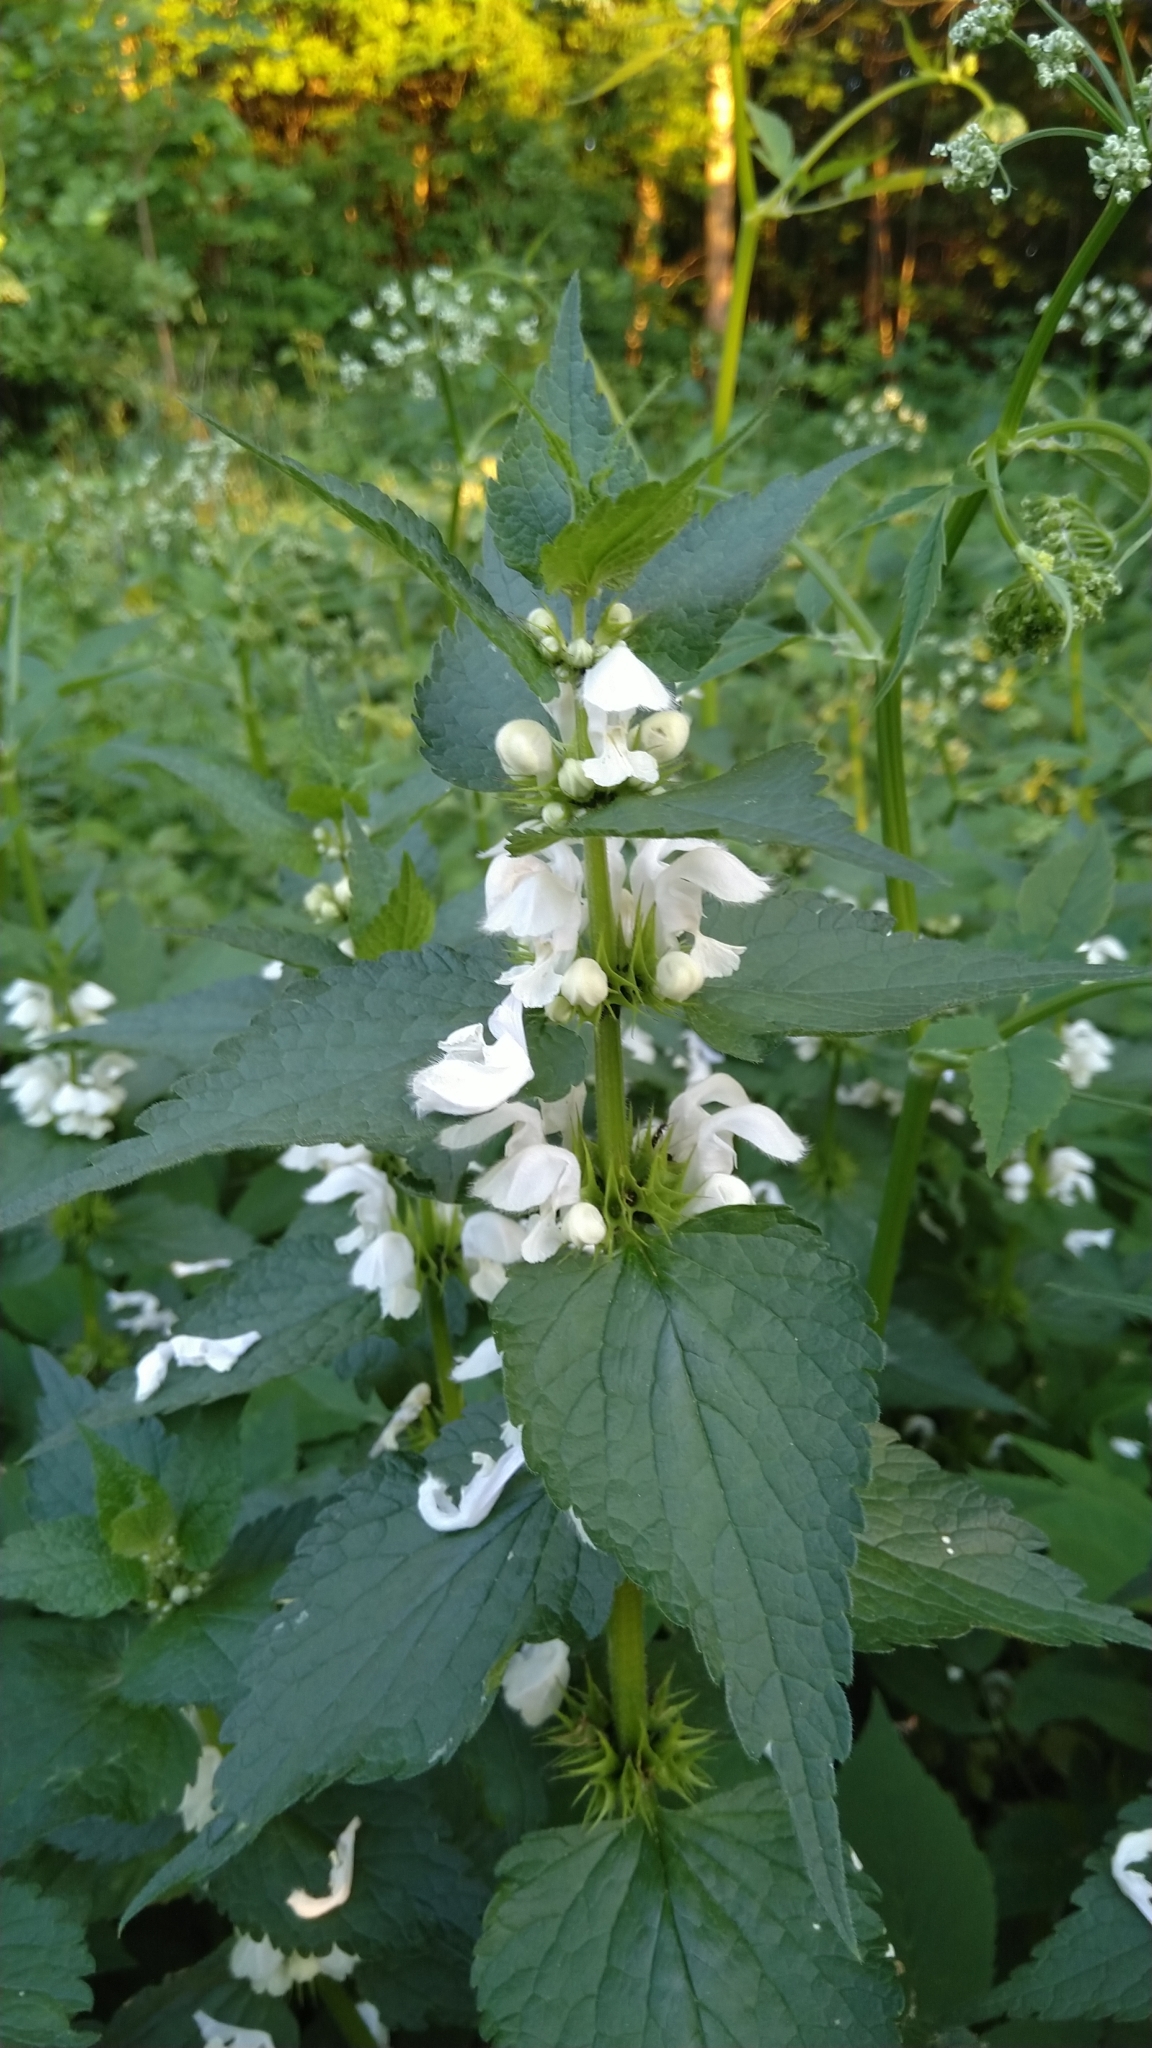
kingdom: Plantae
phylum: Tracheophyta
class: Magnoliopsida
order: Lamiales
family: Lamiaceae
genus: Lamium
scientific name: Lamium album
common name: White dead-nettle
